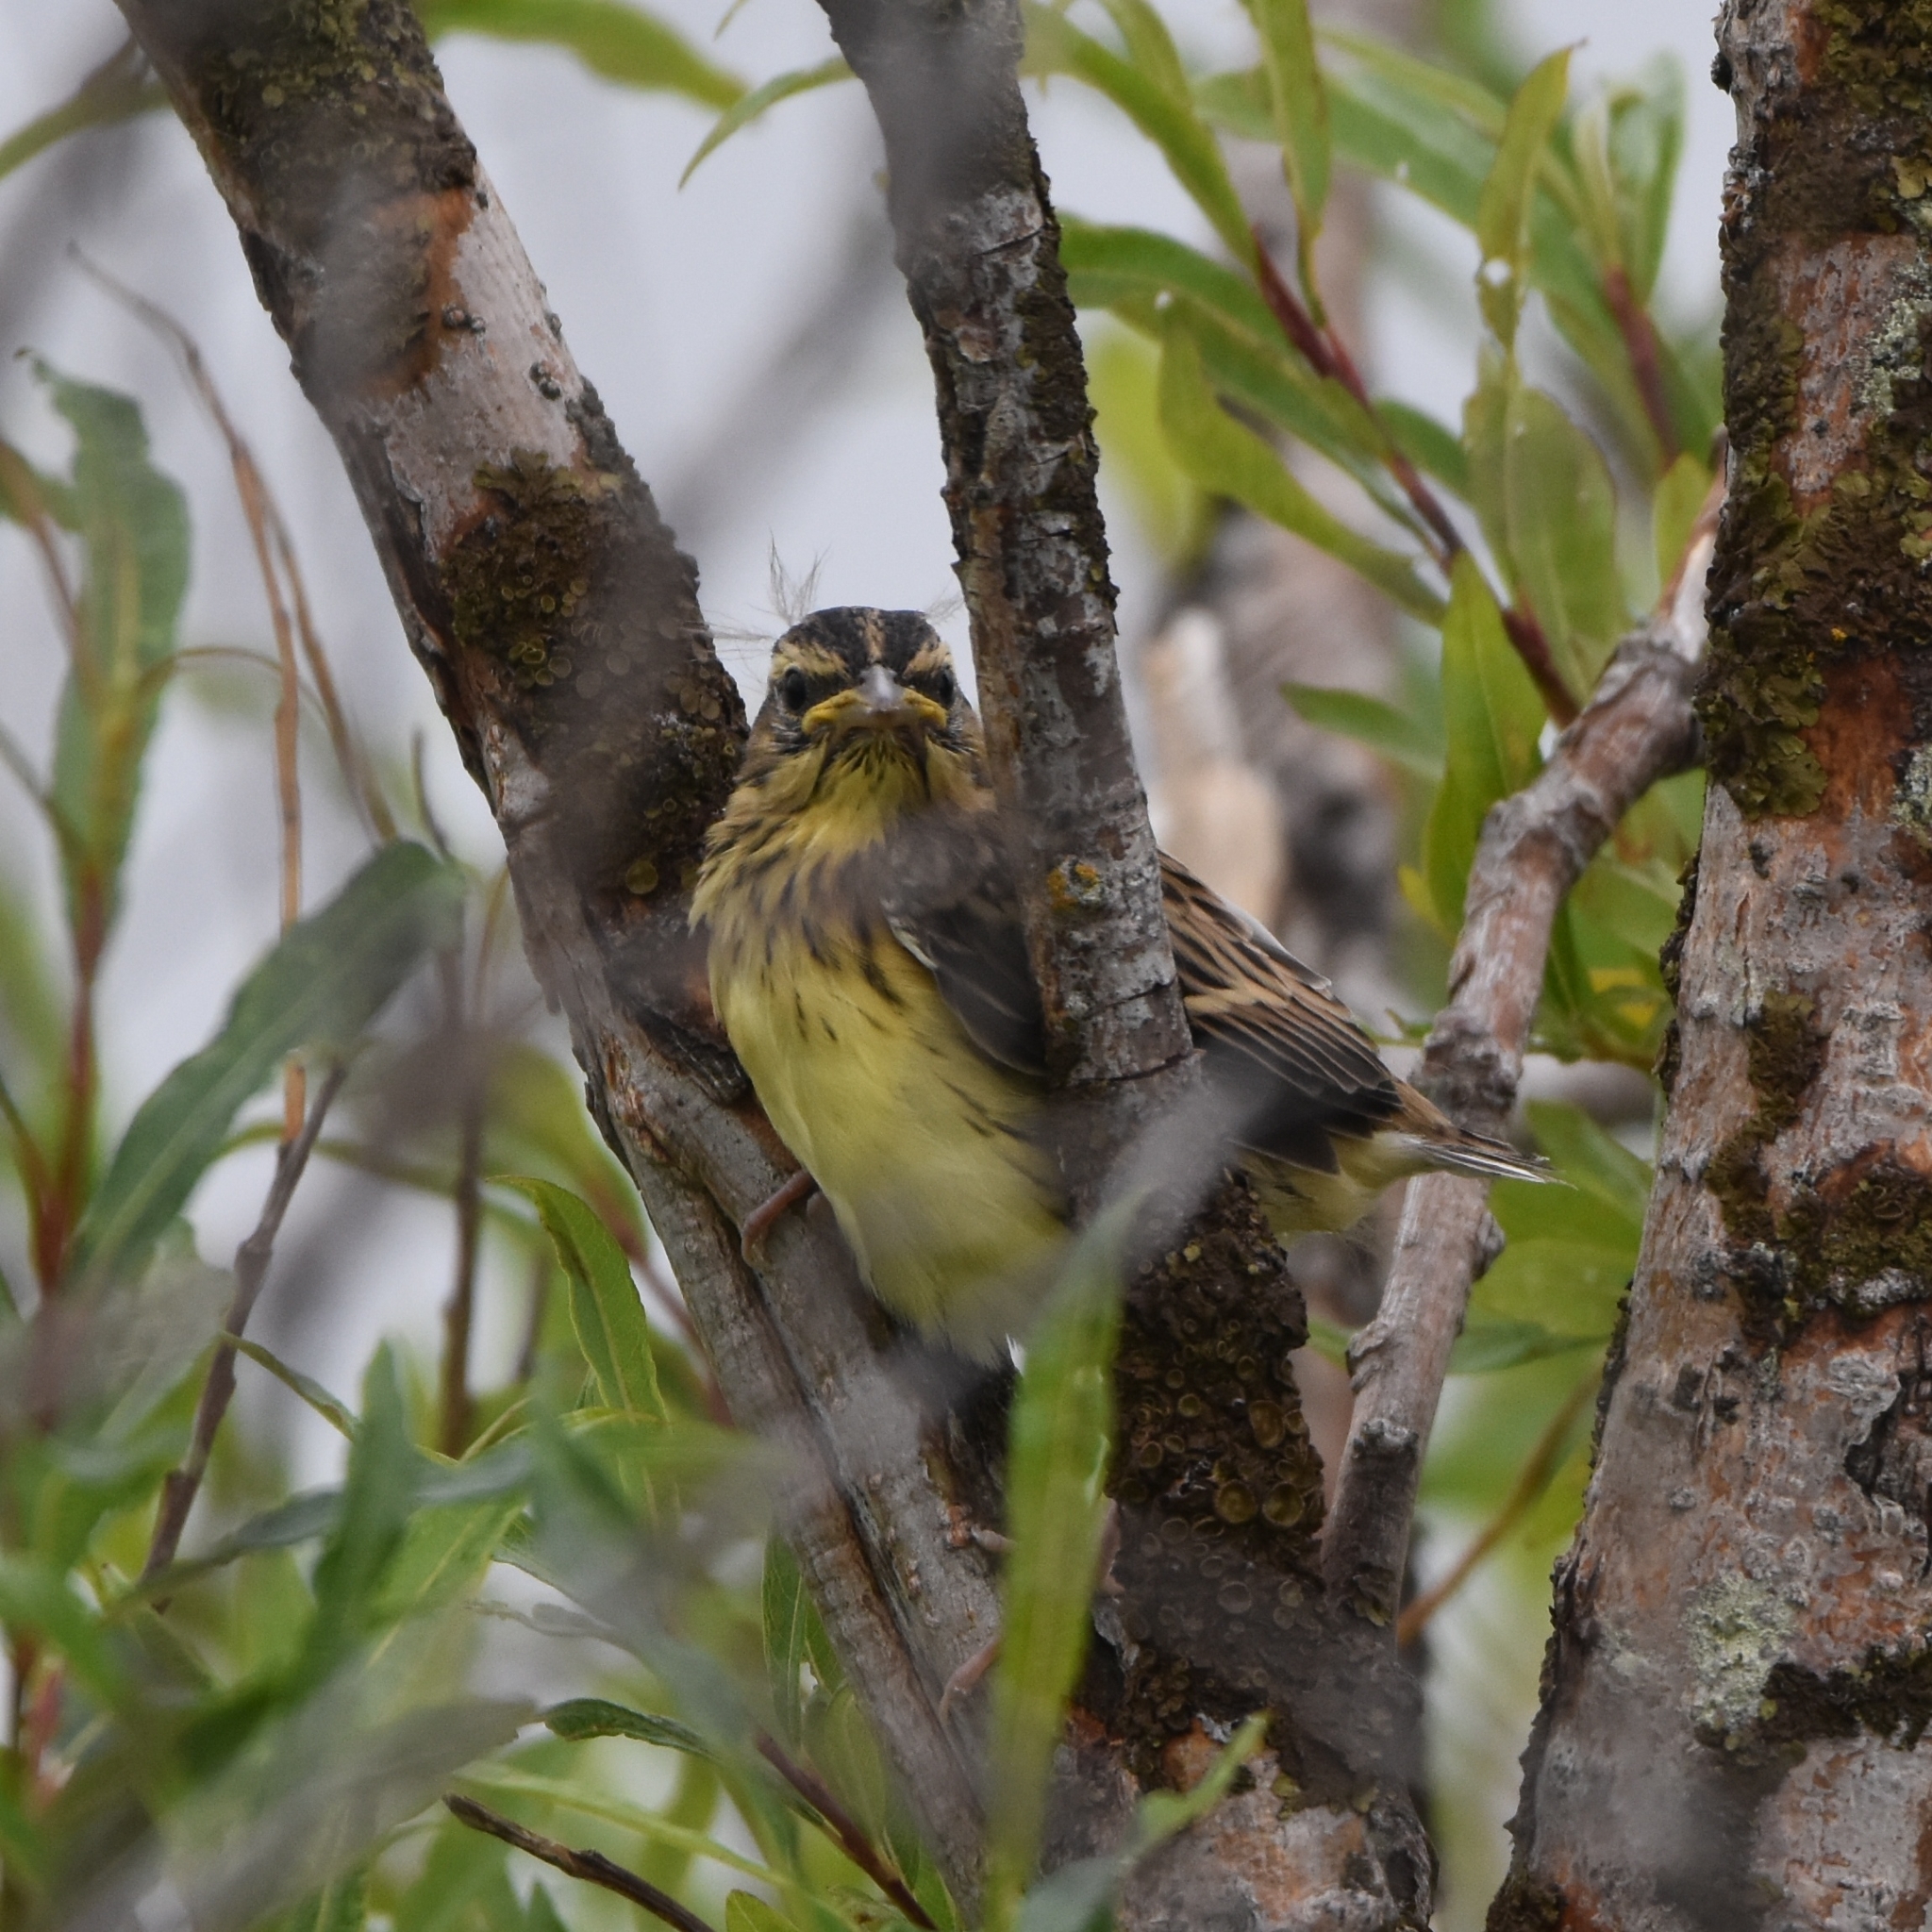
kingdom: Animalia
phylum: Chordata
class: Aves
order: Passeriformes
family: Emberizidae
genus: Emberiza
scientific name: Emberiza aureola
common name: Yellow-breasted bunting
